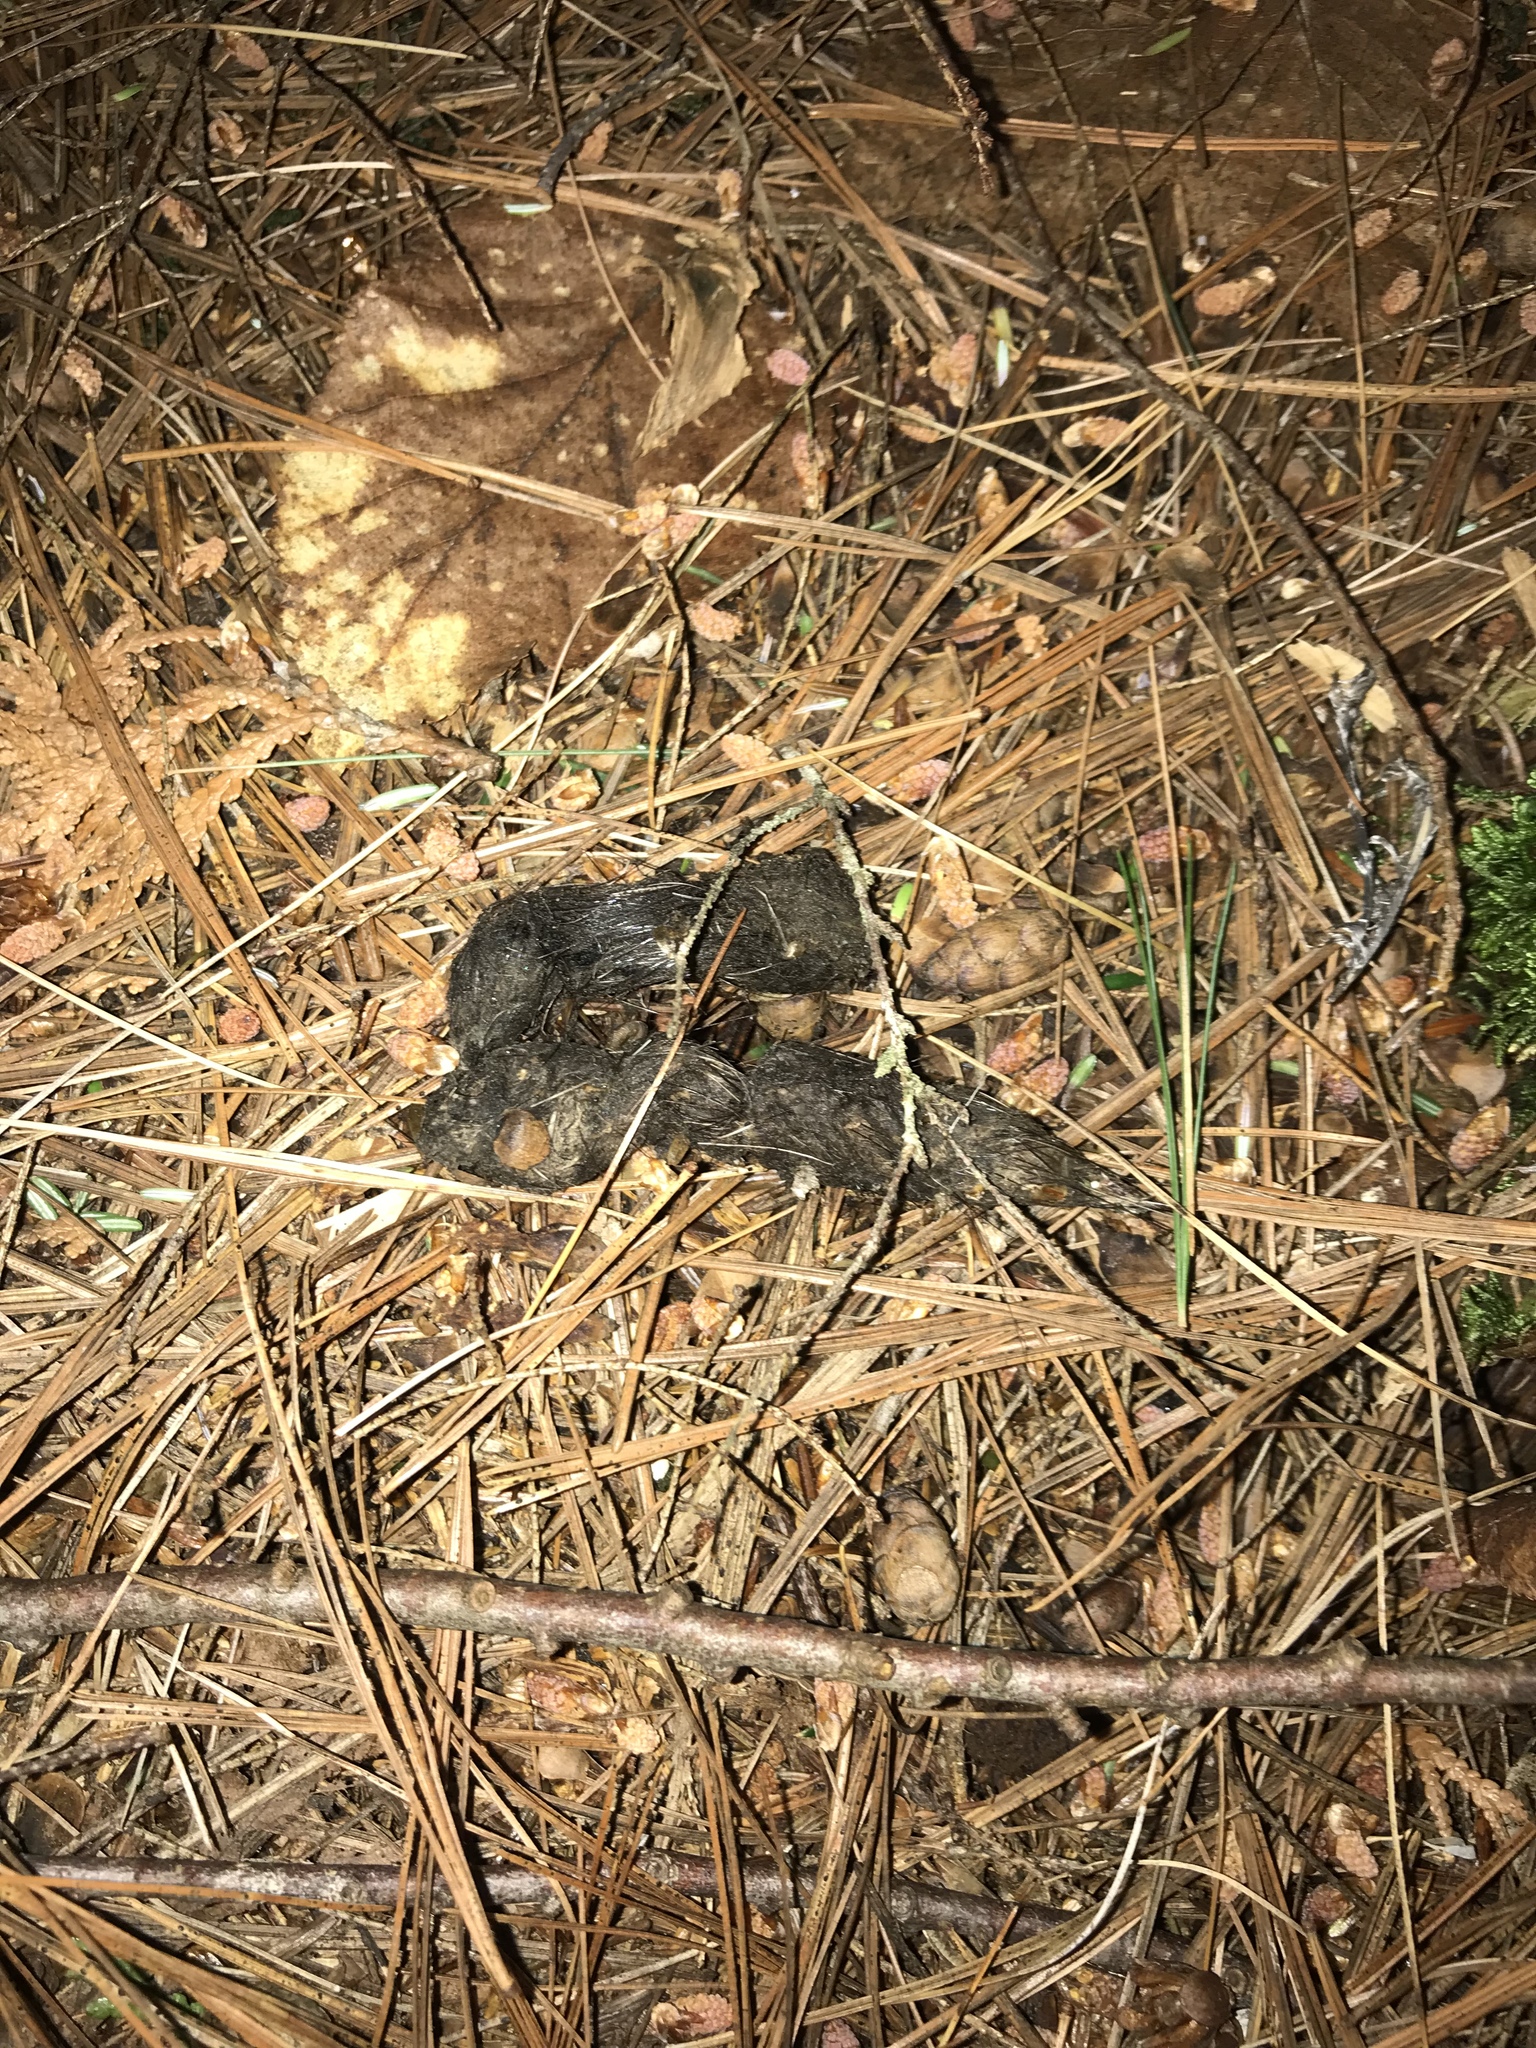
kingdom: Animalia
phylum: Chordata
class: Mammalia
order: Carnivora
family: Canidae
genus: Vulpes
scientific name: Vulpes vulpes
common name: Red fox
